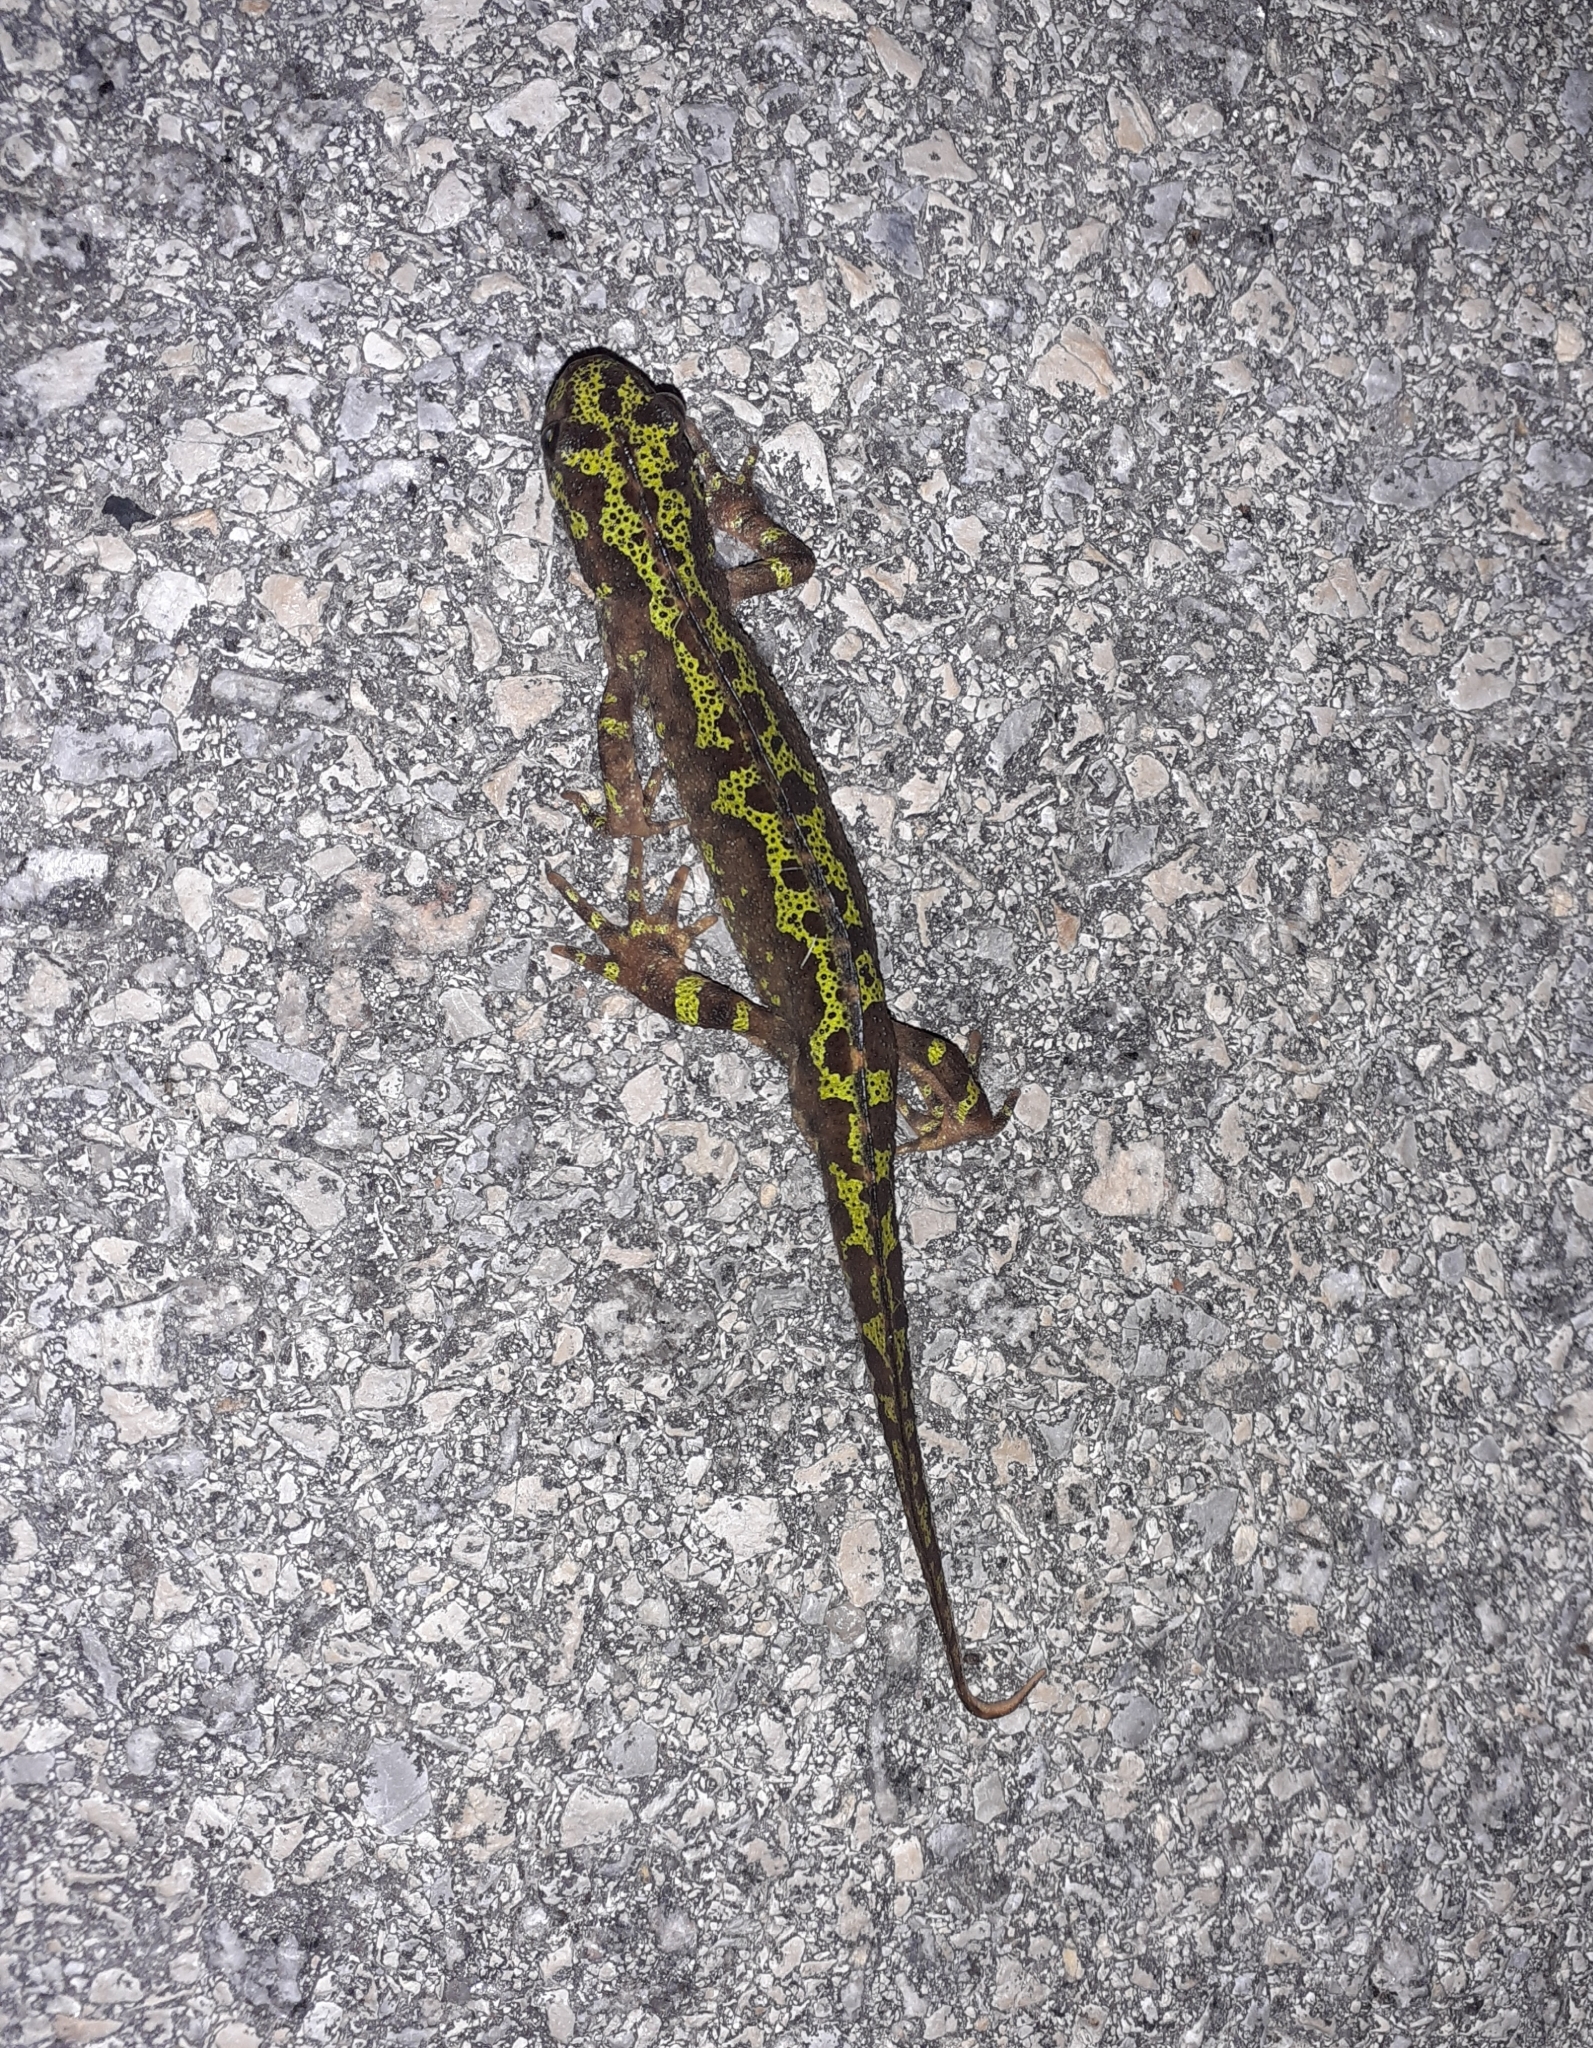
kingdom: Animalia
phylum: Chordata
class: Amphibia
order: Caudata
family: Salamandridae
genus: Triturus
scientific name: Triturus marmoratus
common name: Marbled newt
